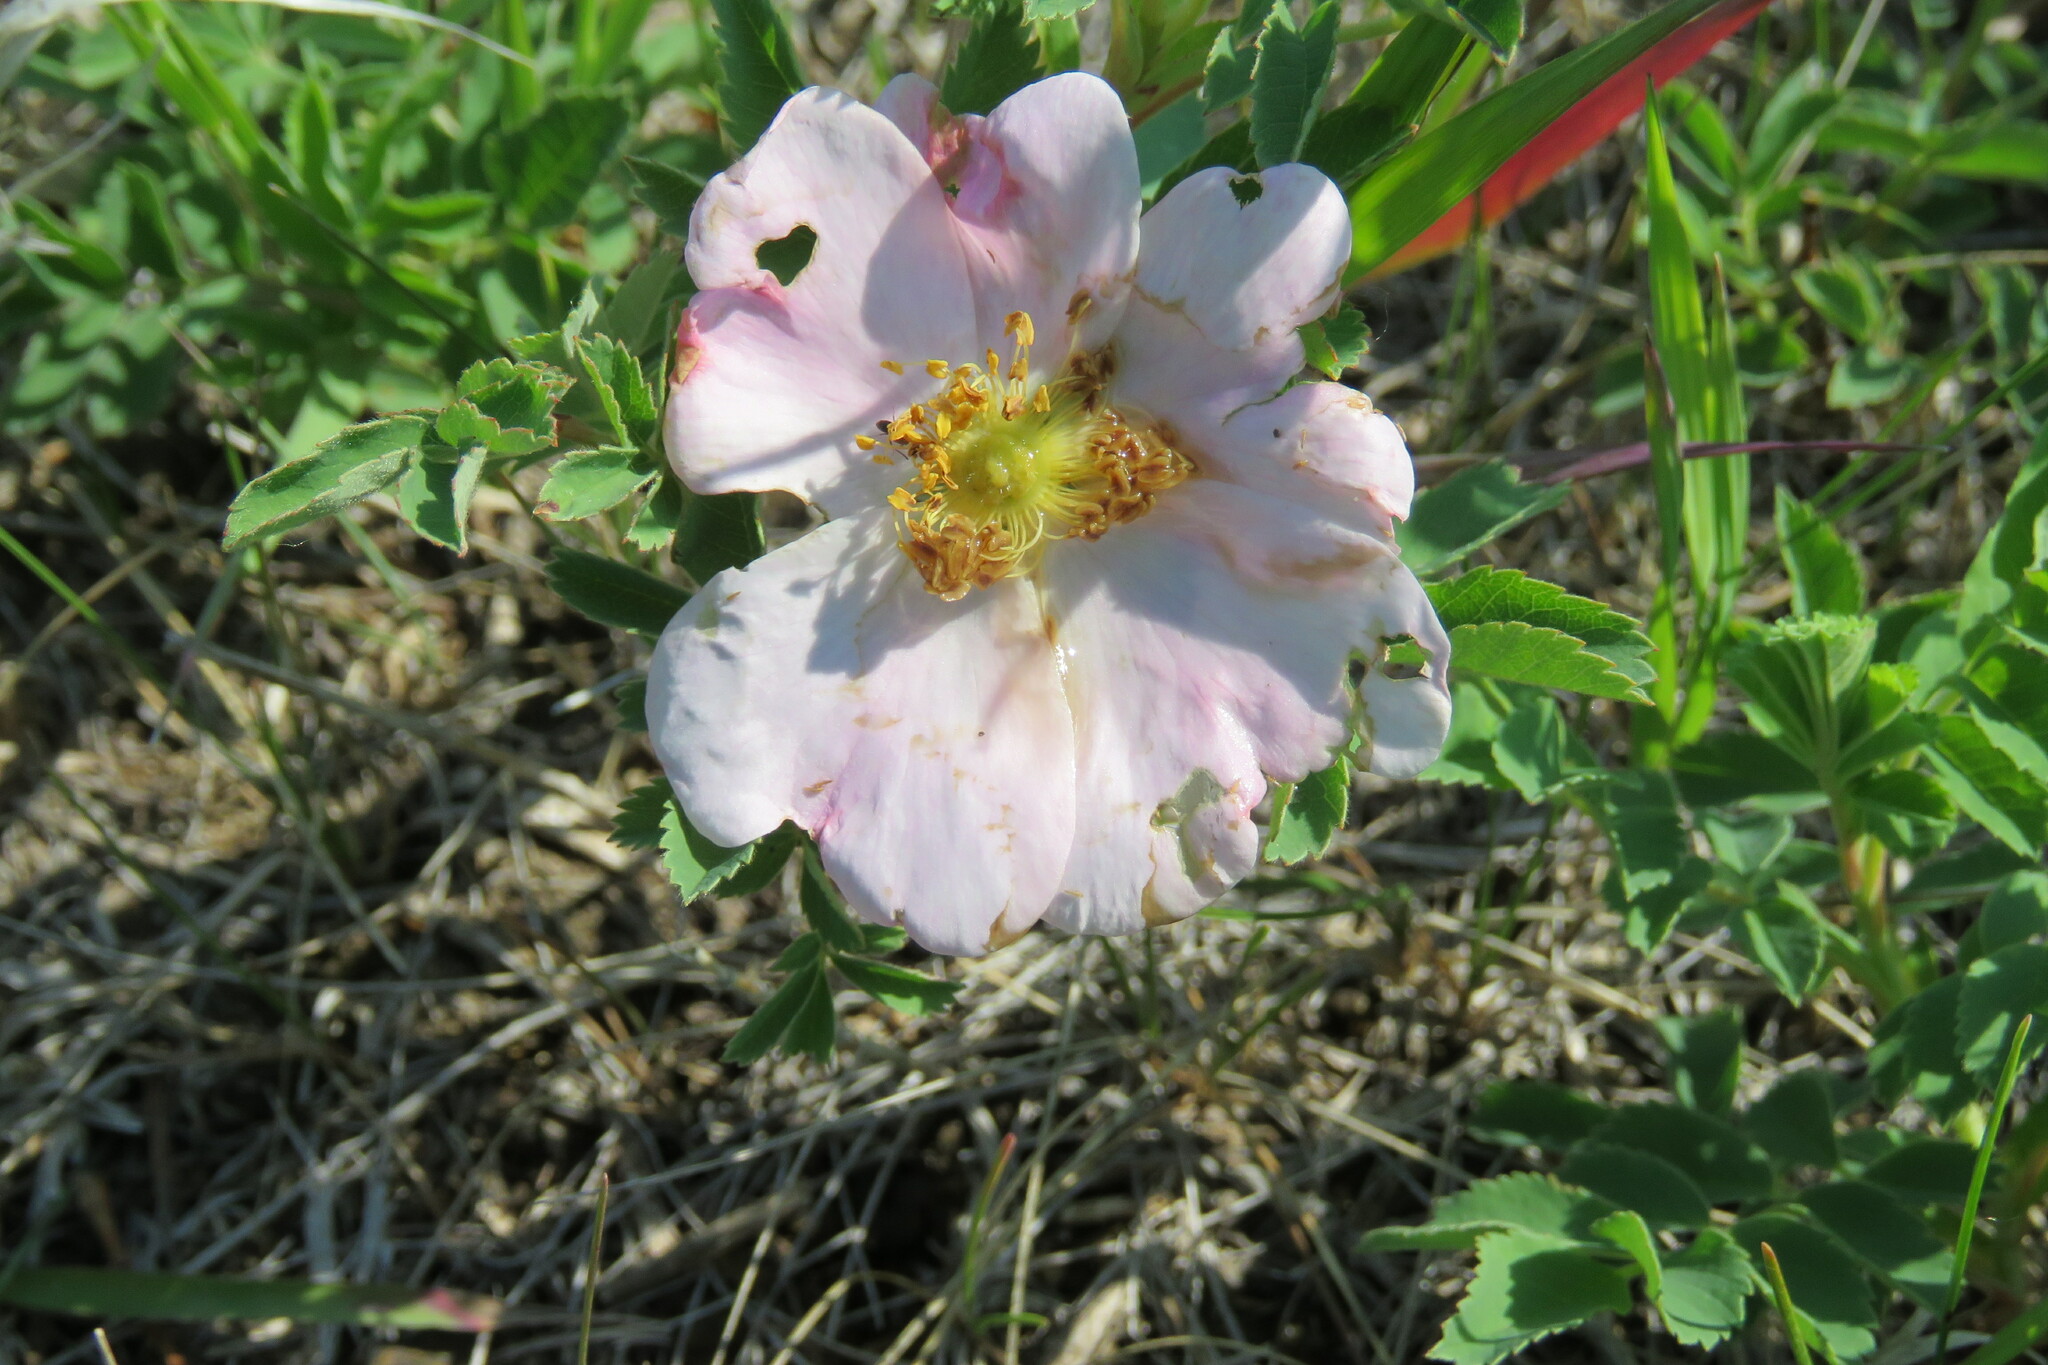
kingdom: Plantae
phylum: Tracheophyta
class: Magnoliopsida
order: Rosales
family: Rosaceae
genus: Rosa
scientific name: Rosa arkansana
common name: Prairie rose
